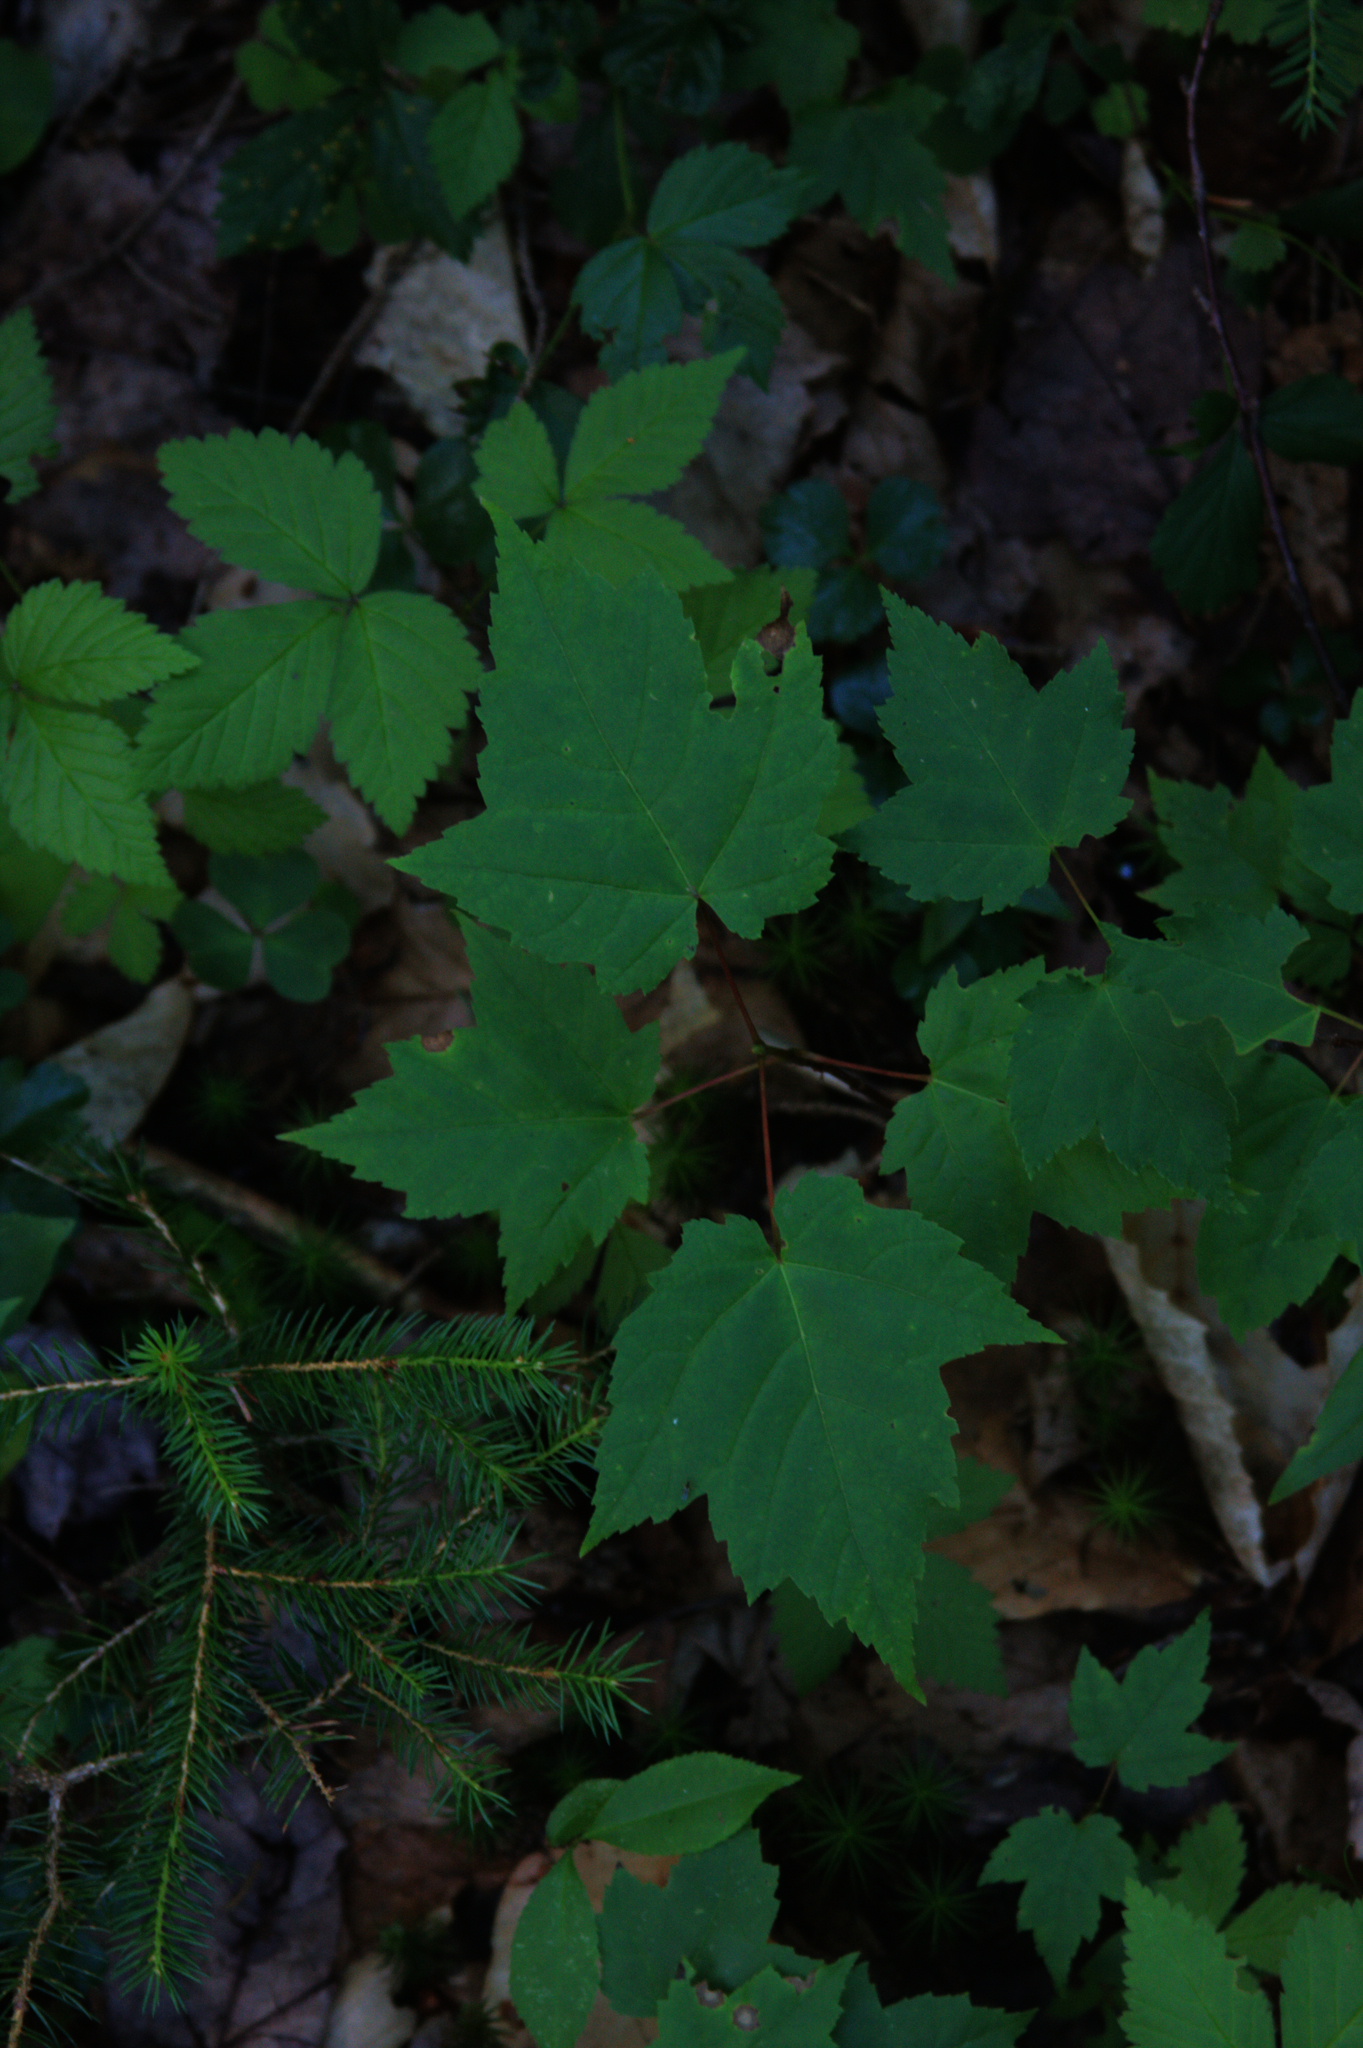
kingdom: Plantae
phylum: Tracheophyta
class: Magnoliopsida
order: Sapindales
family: Sapindaceae
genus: Acer
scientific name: Acer rubrum
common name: Red maple
